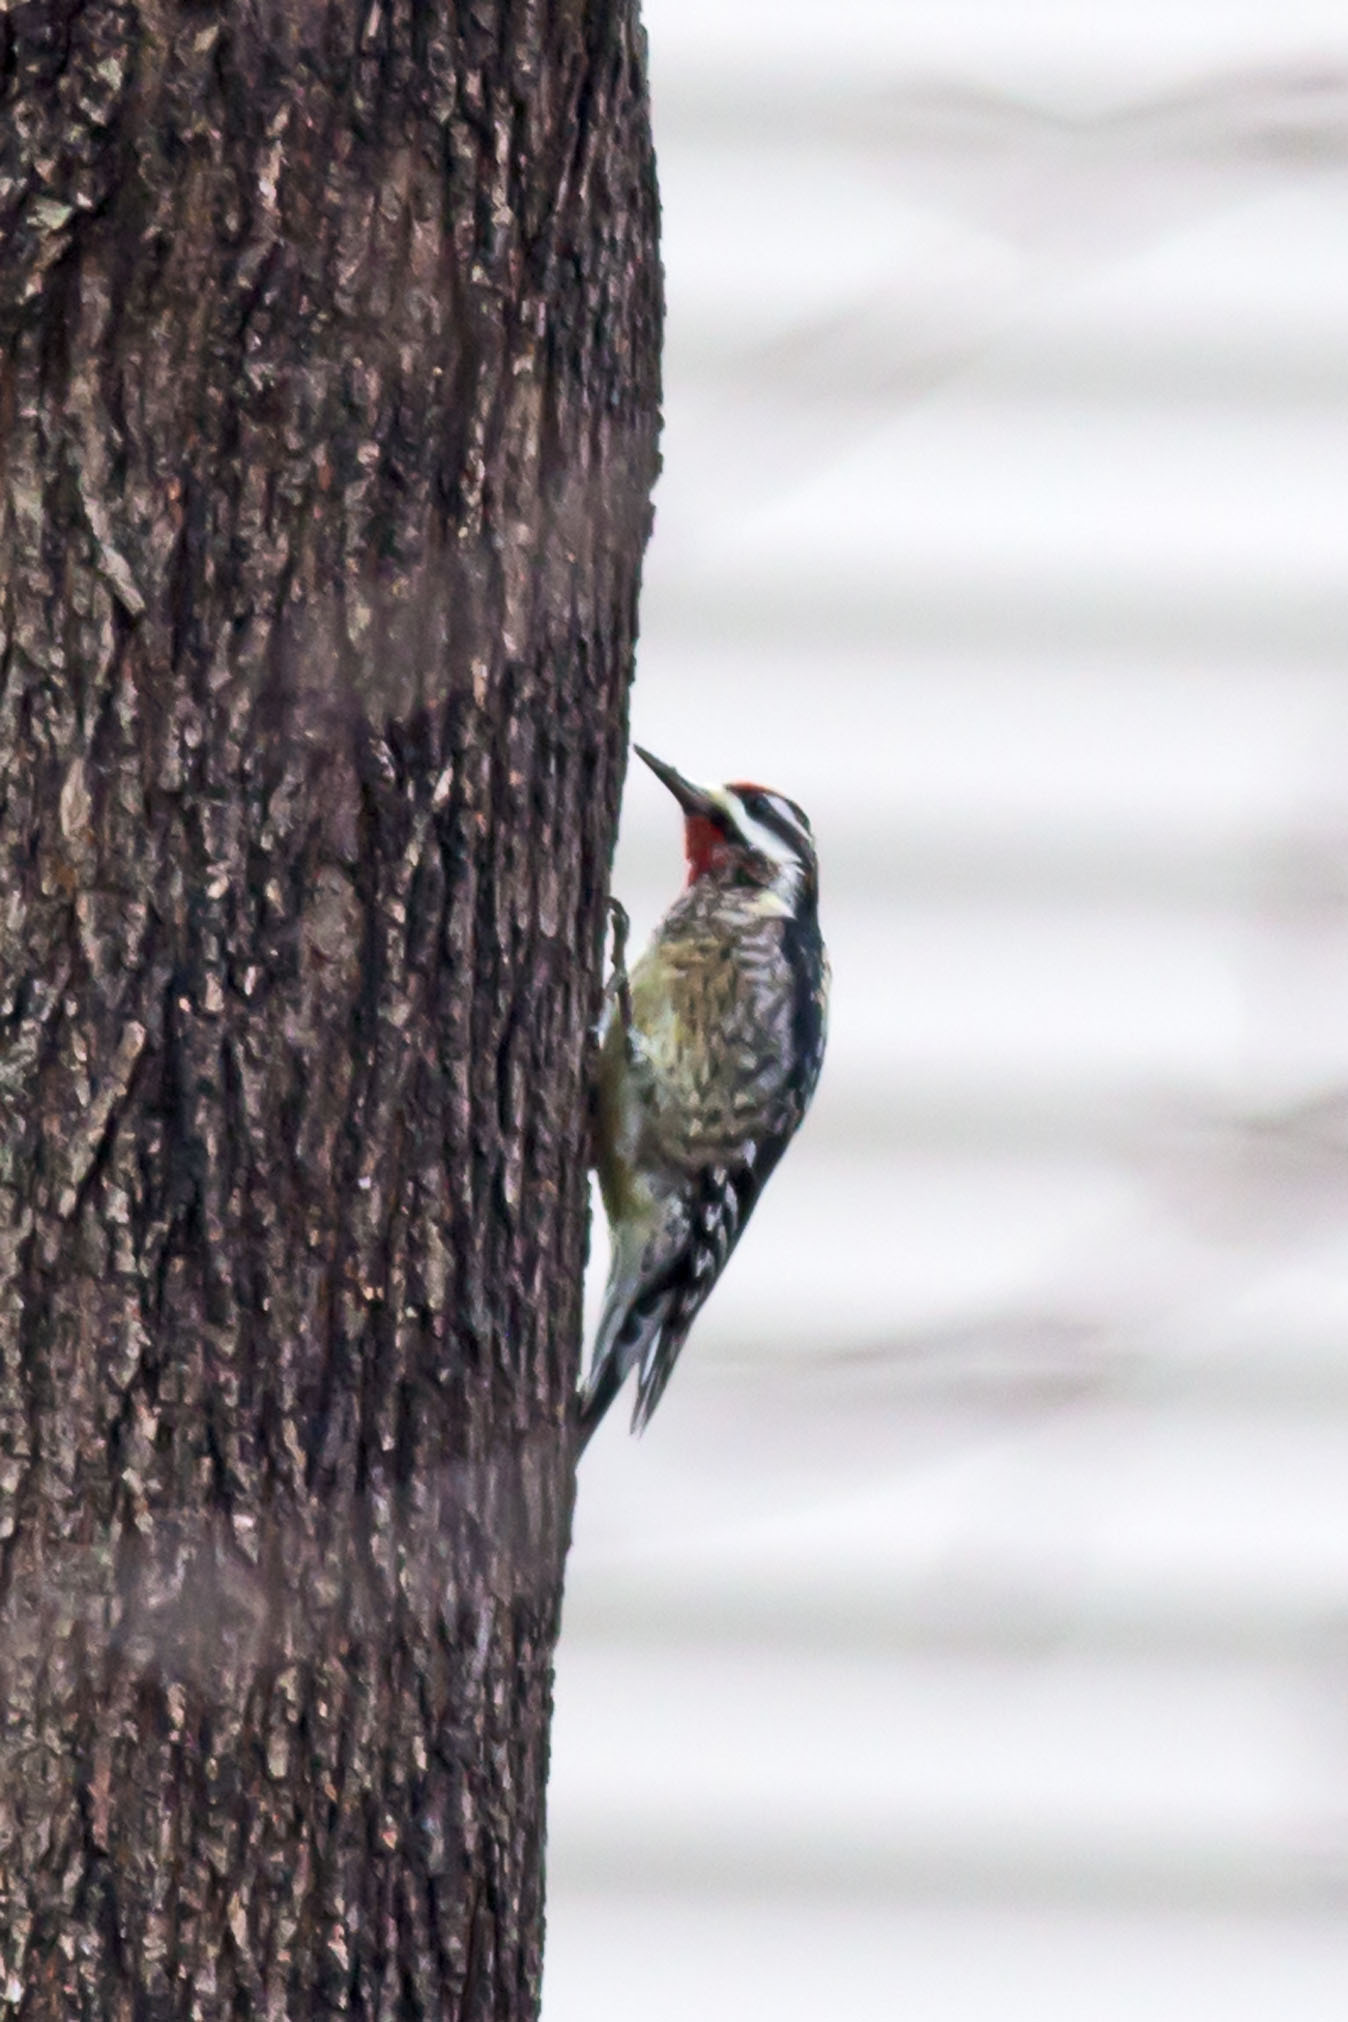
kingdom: Animalia
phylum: Chordata
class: Aves
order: Piciformes
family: Picidae
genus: Sphyrapicus
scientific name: Sphyrapicus varius
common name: Yellow-bellied sapsucker
